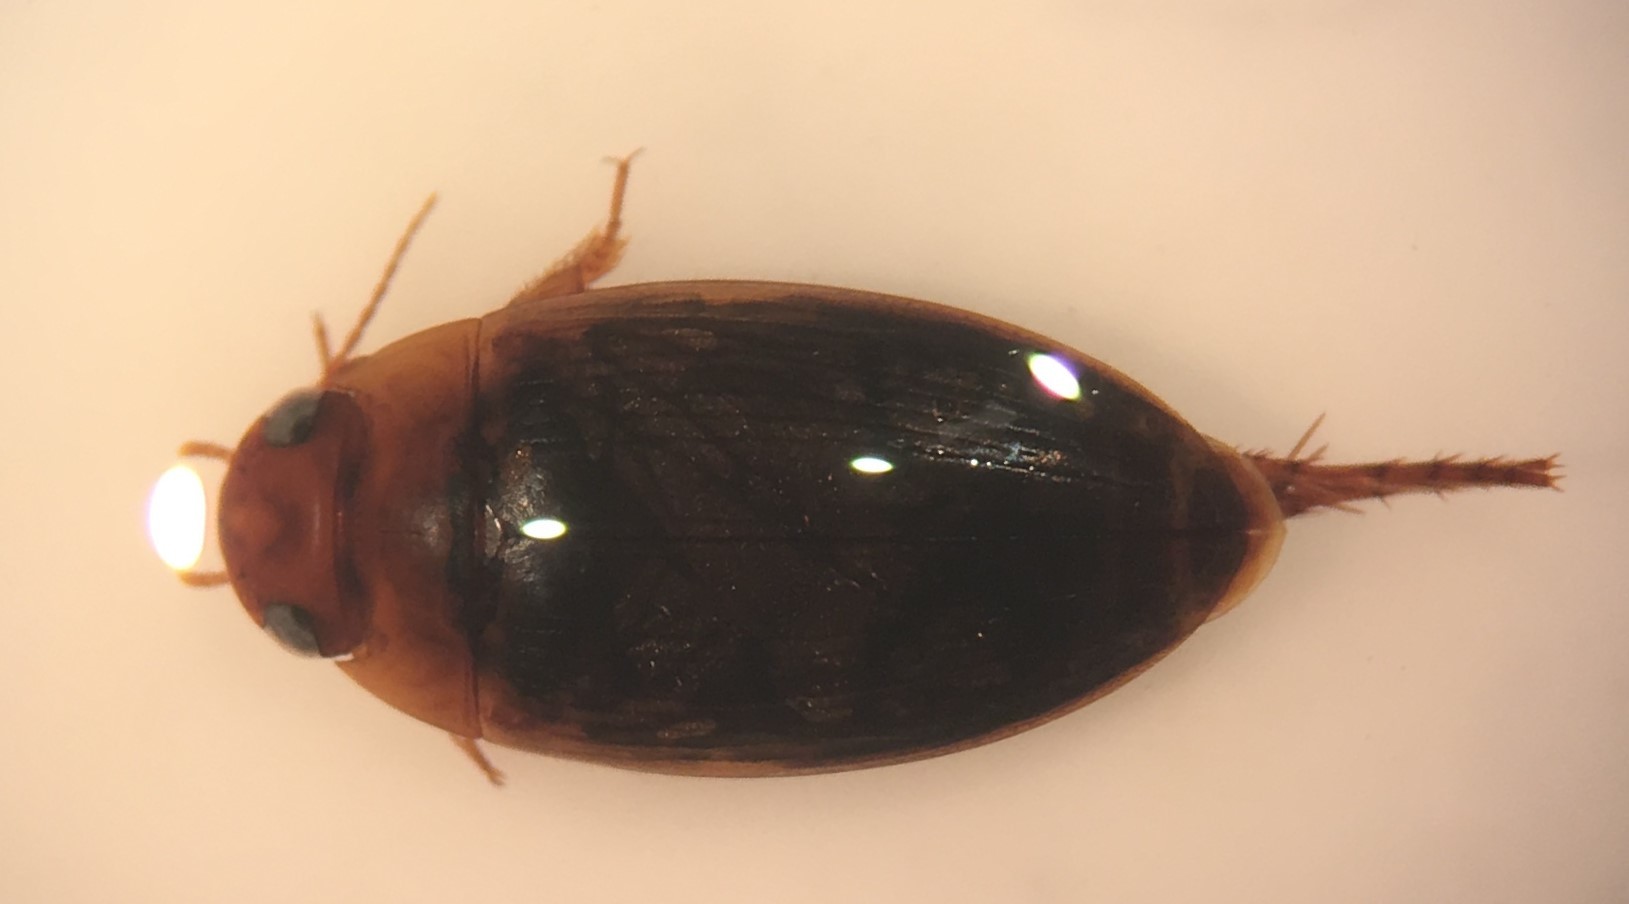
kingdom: Animalia
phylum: Arthropoda
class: Insecta
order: Coleoptera
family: Dytiscidae
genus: Copelatus
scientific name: Copelatus chevrolati
